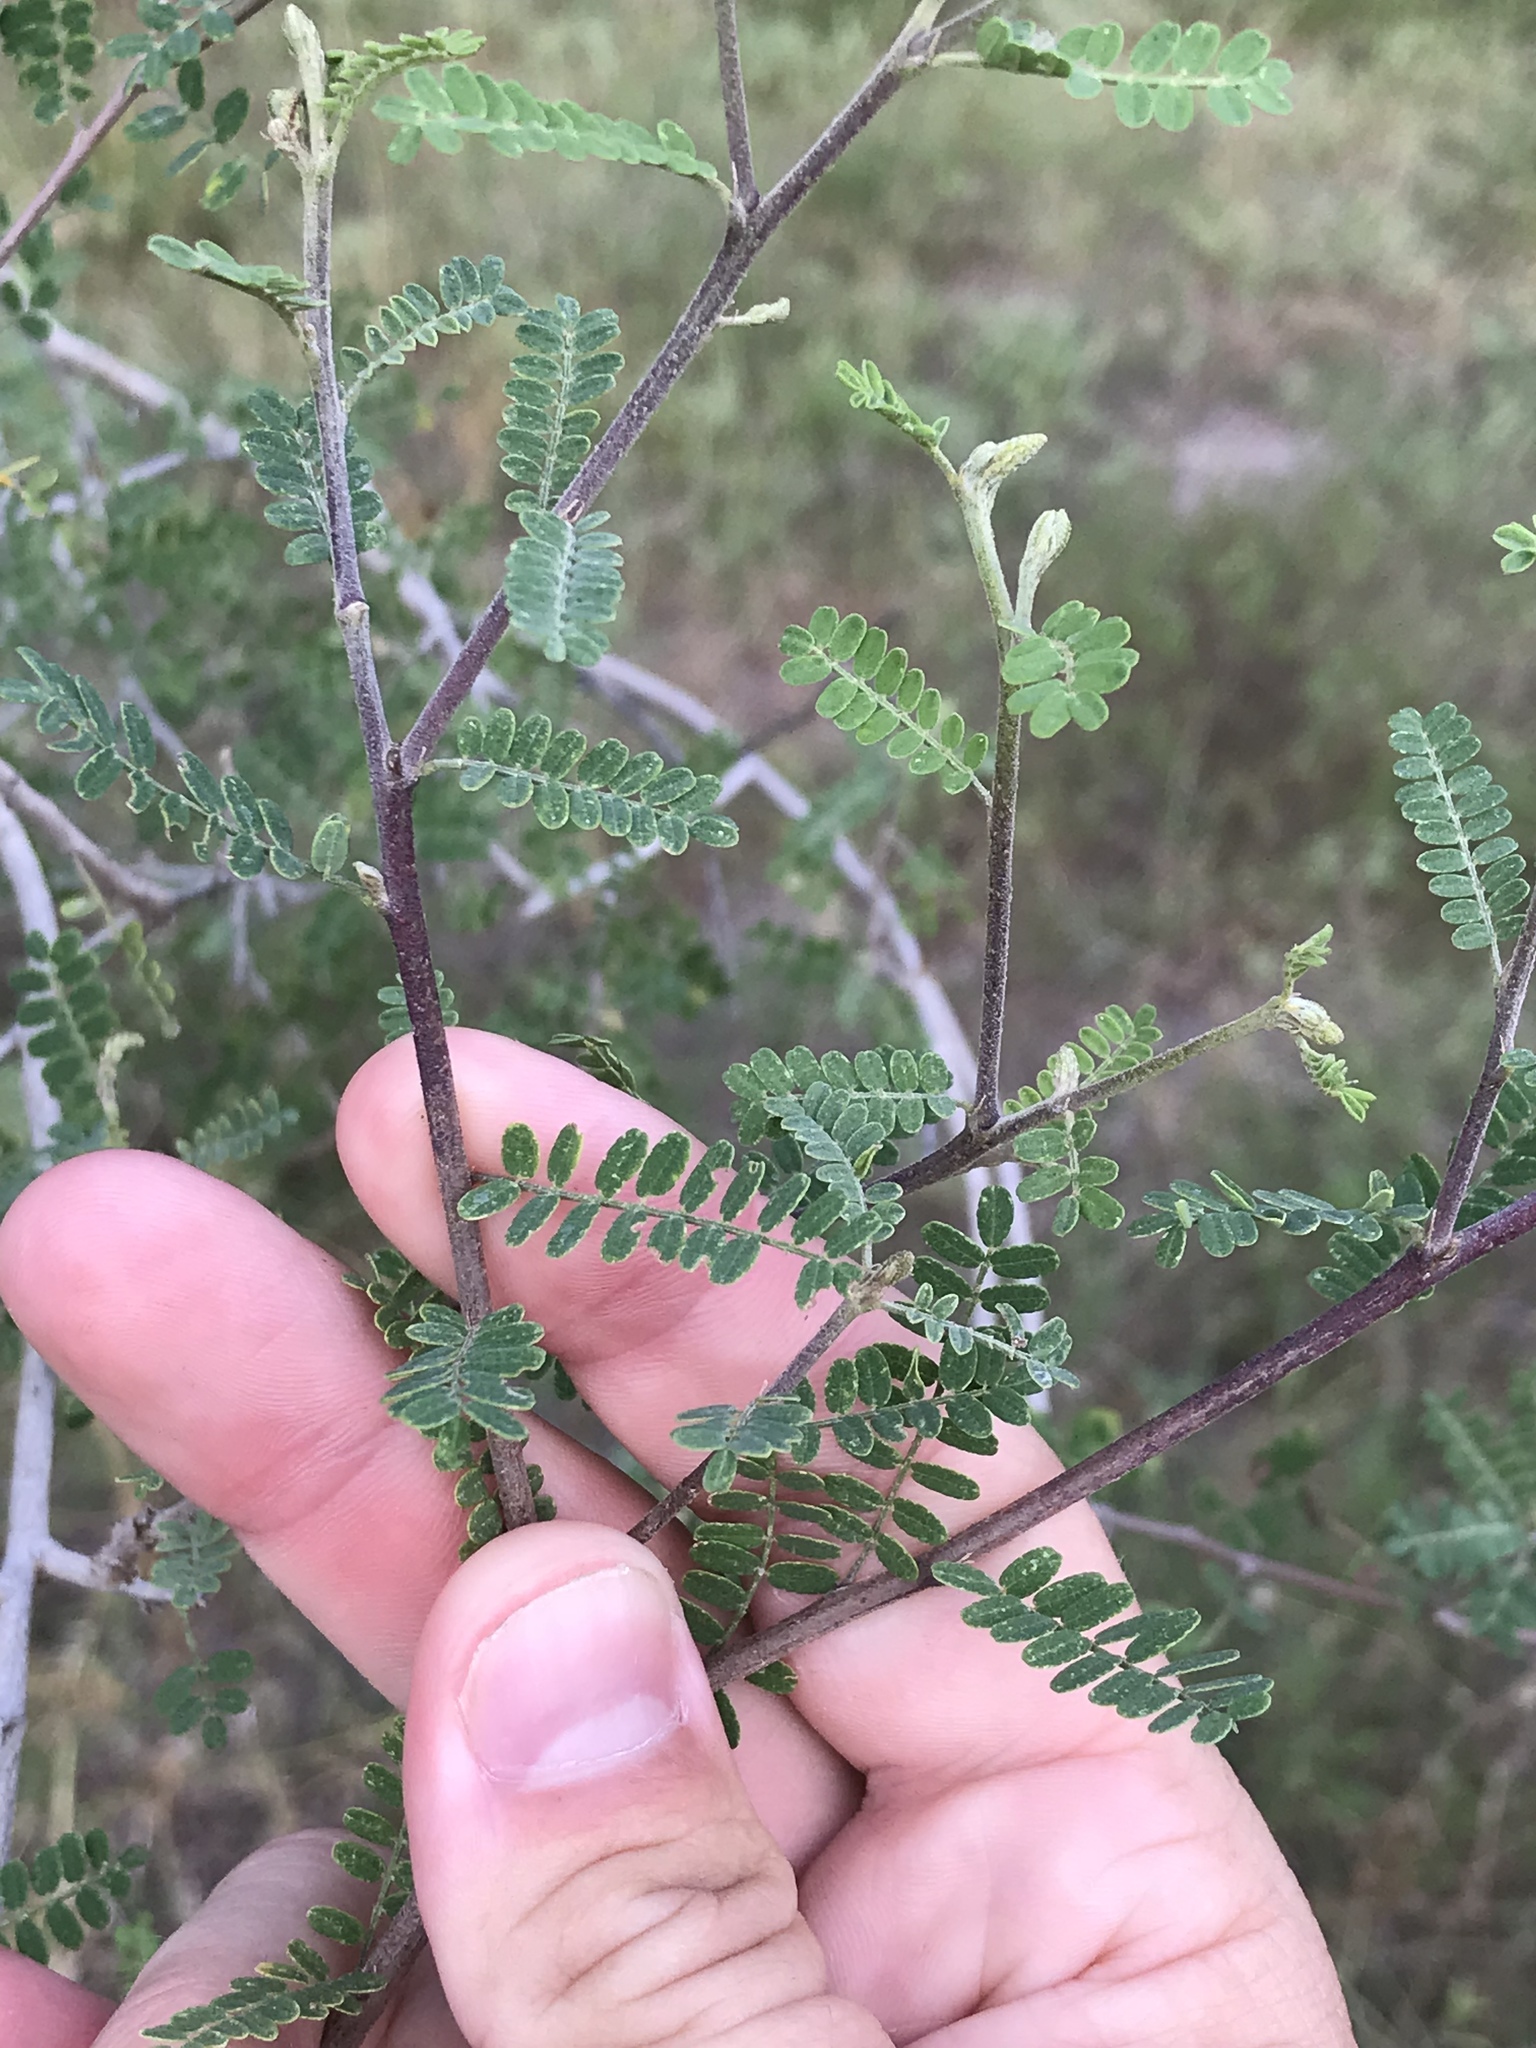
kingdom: Plantae
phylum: Tracheophyta
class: Magnoliopsida
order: Fabales
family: Fabaceae
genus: Eysenhardtia
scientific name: Eysenhardtia texana
